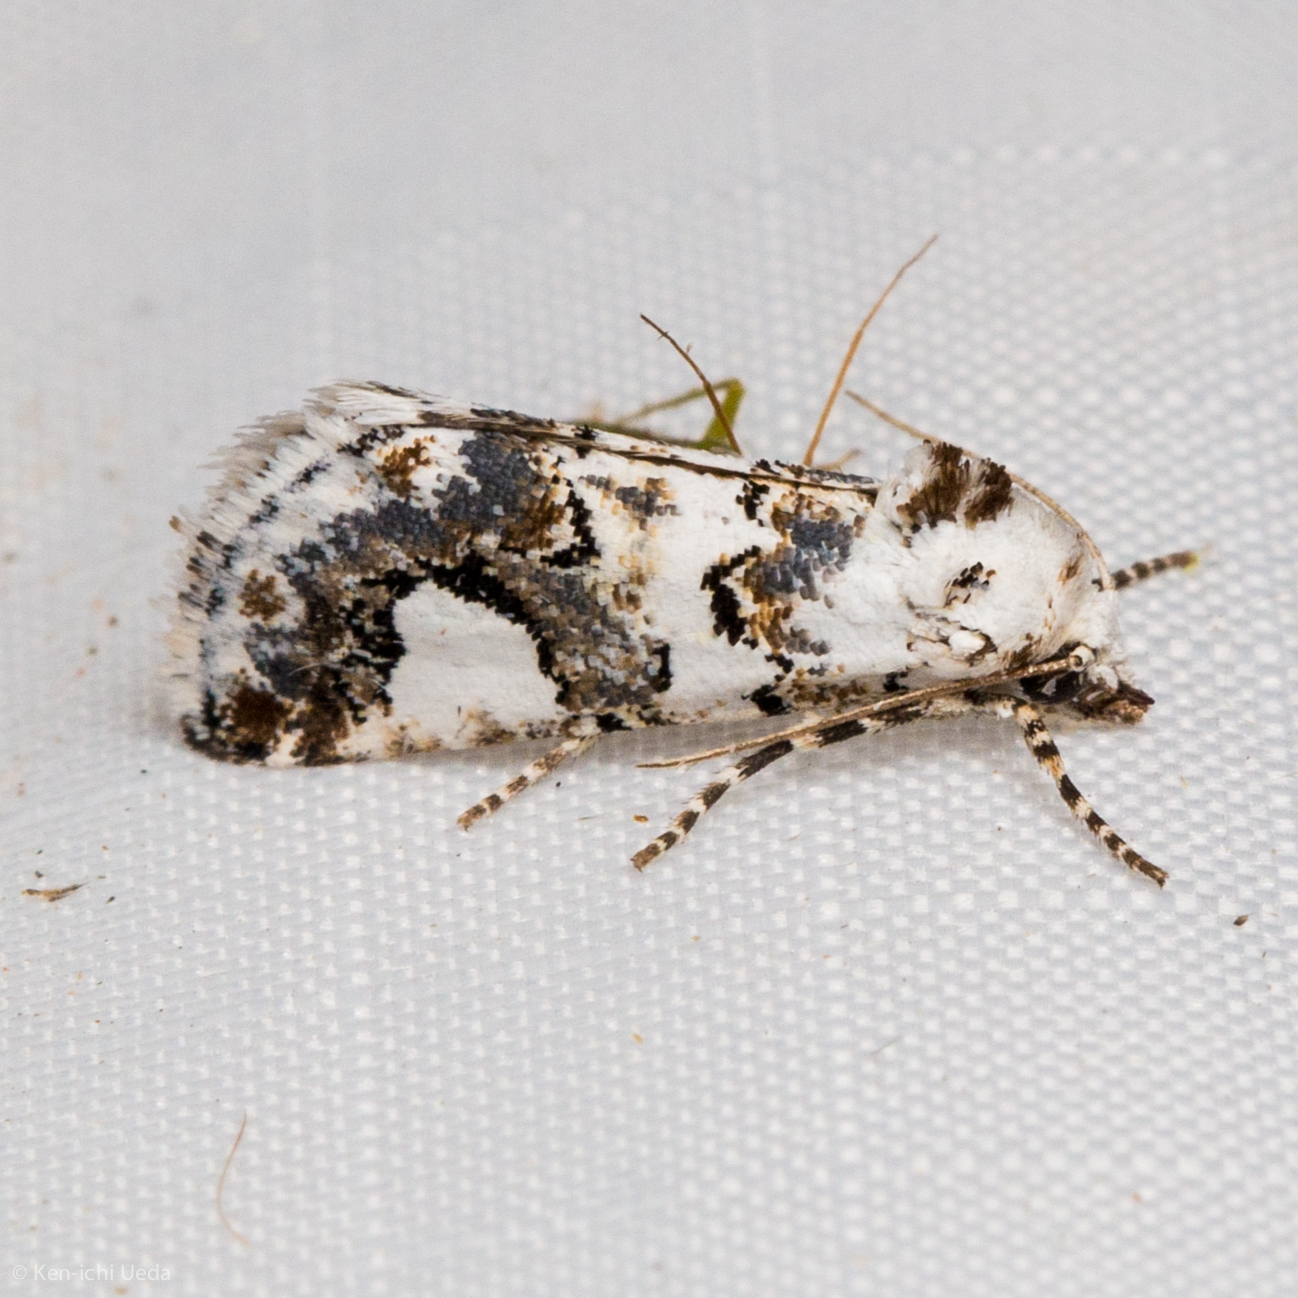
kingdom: Animalia
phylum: Arthropoda
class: Insecta
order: Lepidoptera
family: Noctuidae
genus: Tristyla
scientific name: Tristyla alboplagiata
